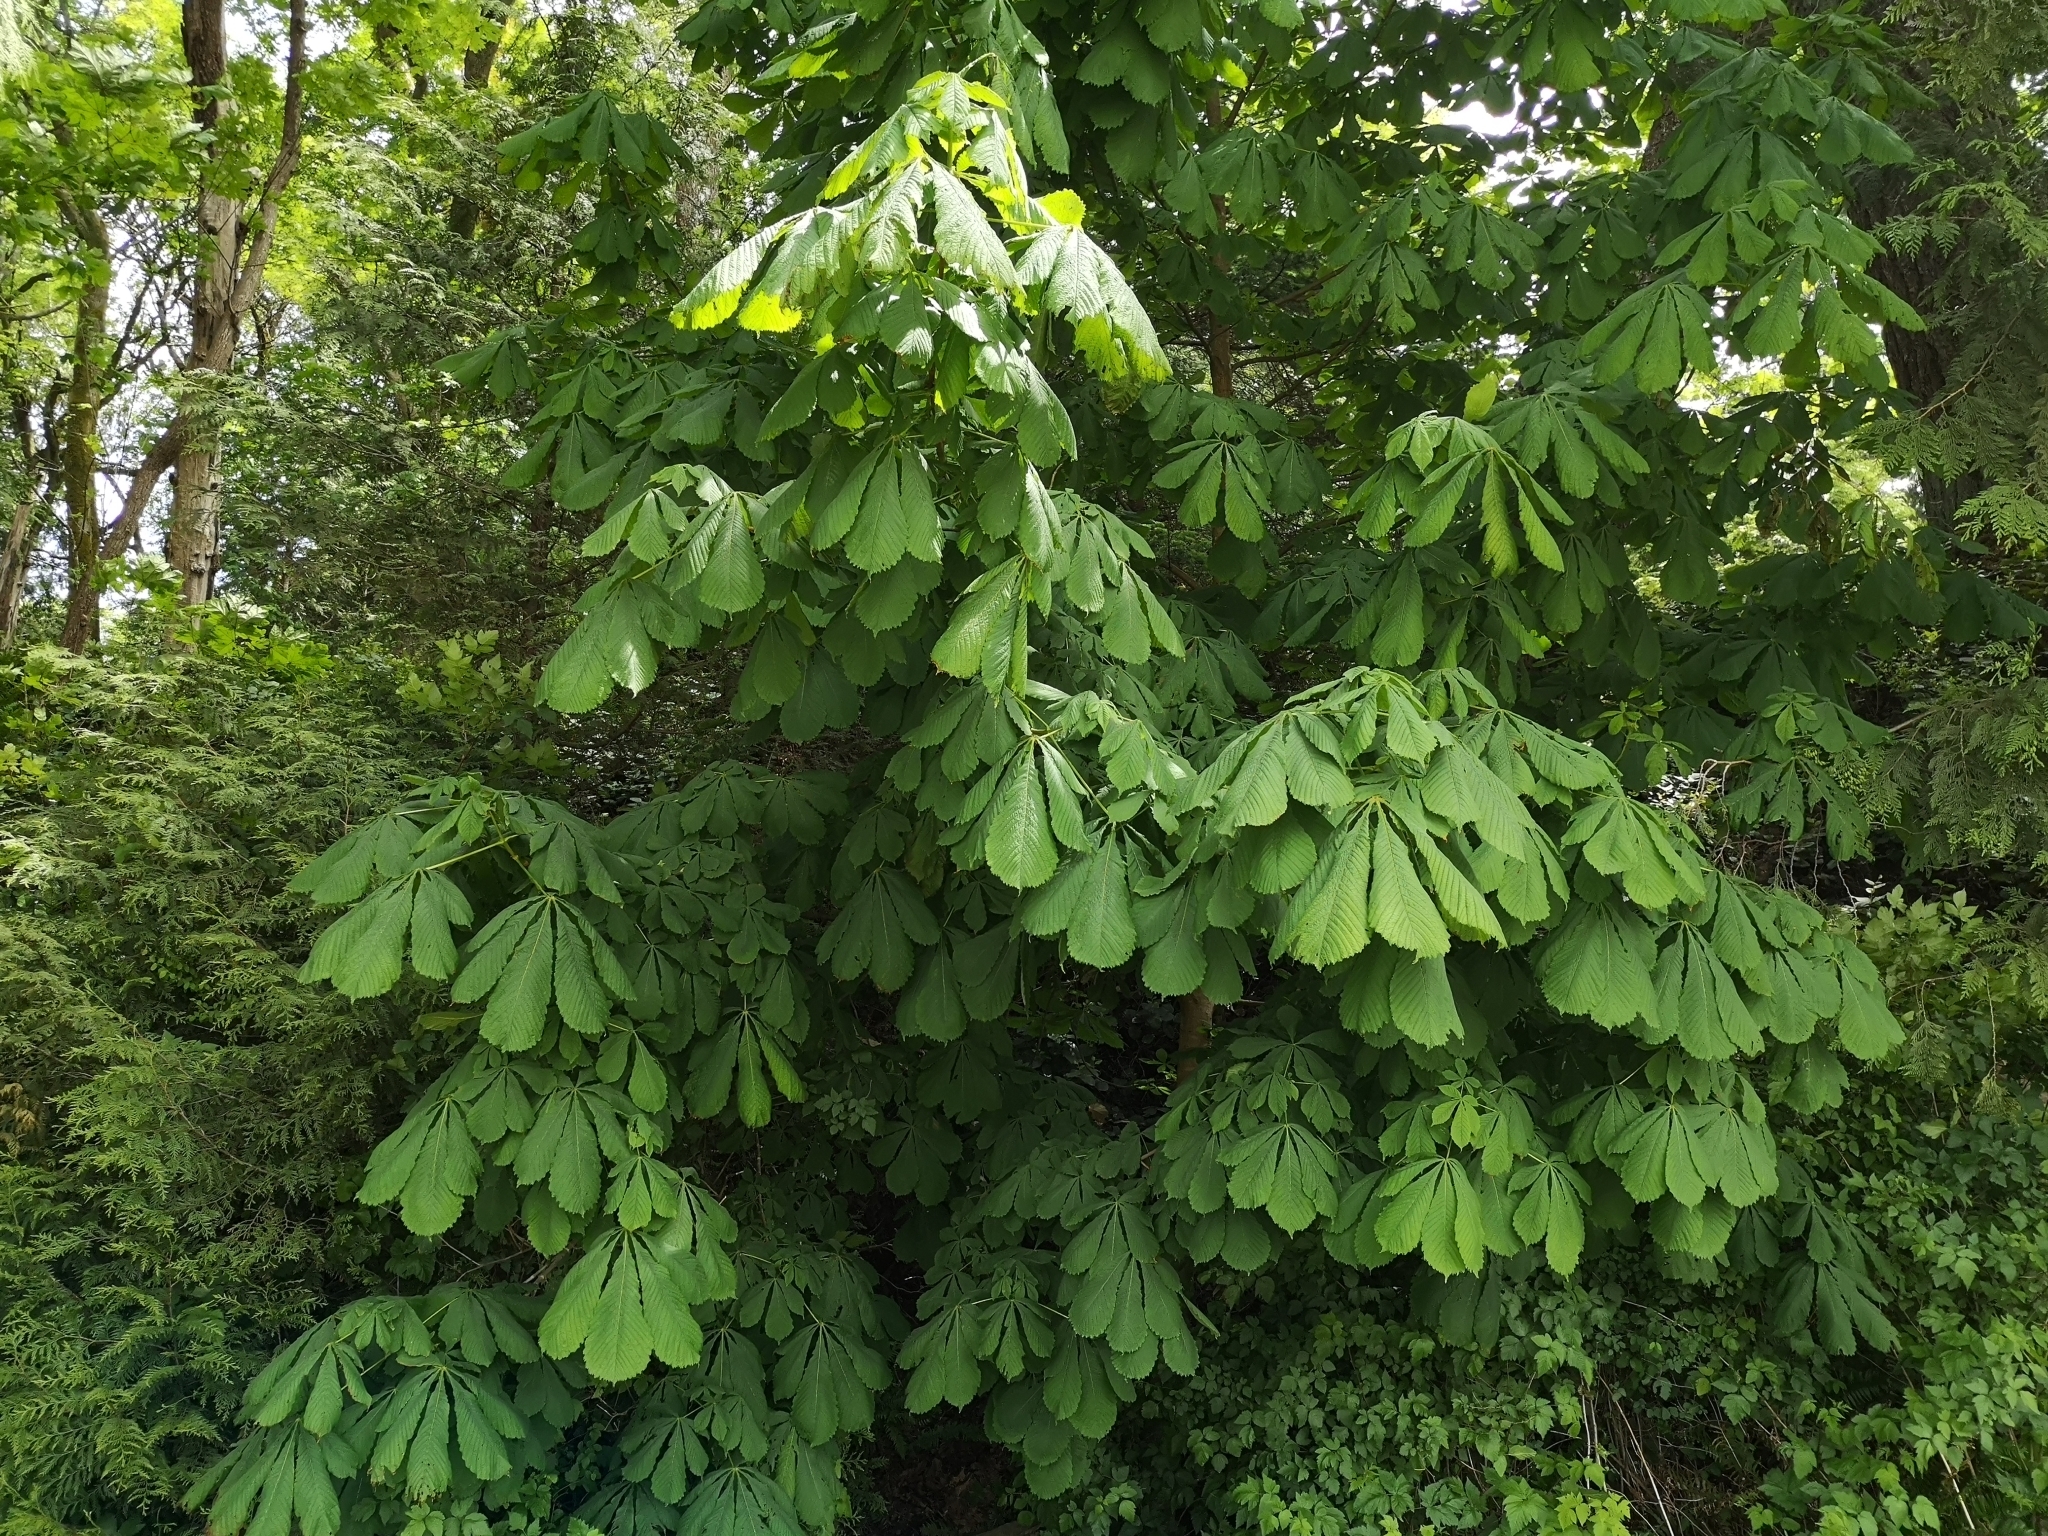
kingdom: Plantae
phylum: Tracheophyta
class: Magnoliopsida
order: Sapindales
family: Sapindaceae
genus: Aesculus
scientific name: Aesculus hippocastanum
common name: Horse-chestnut
